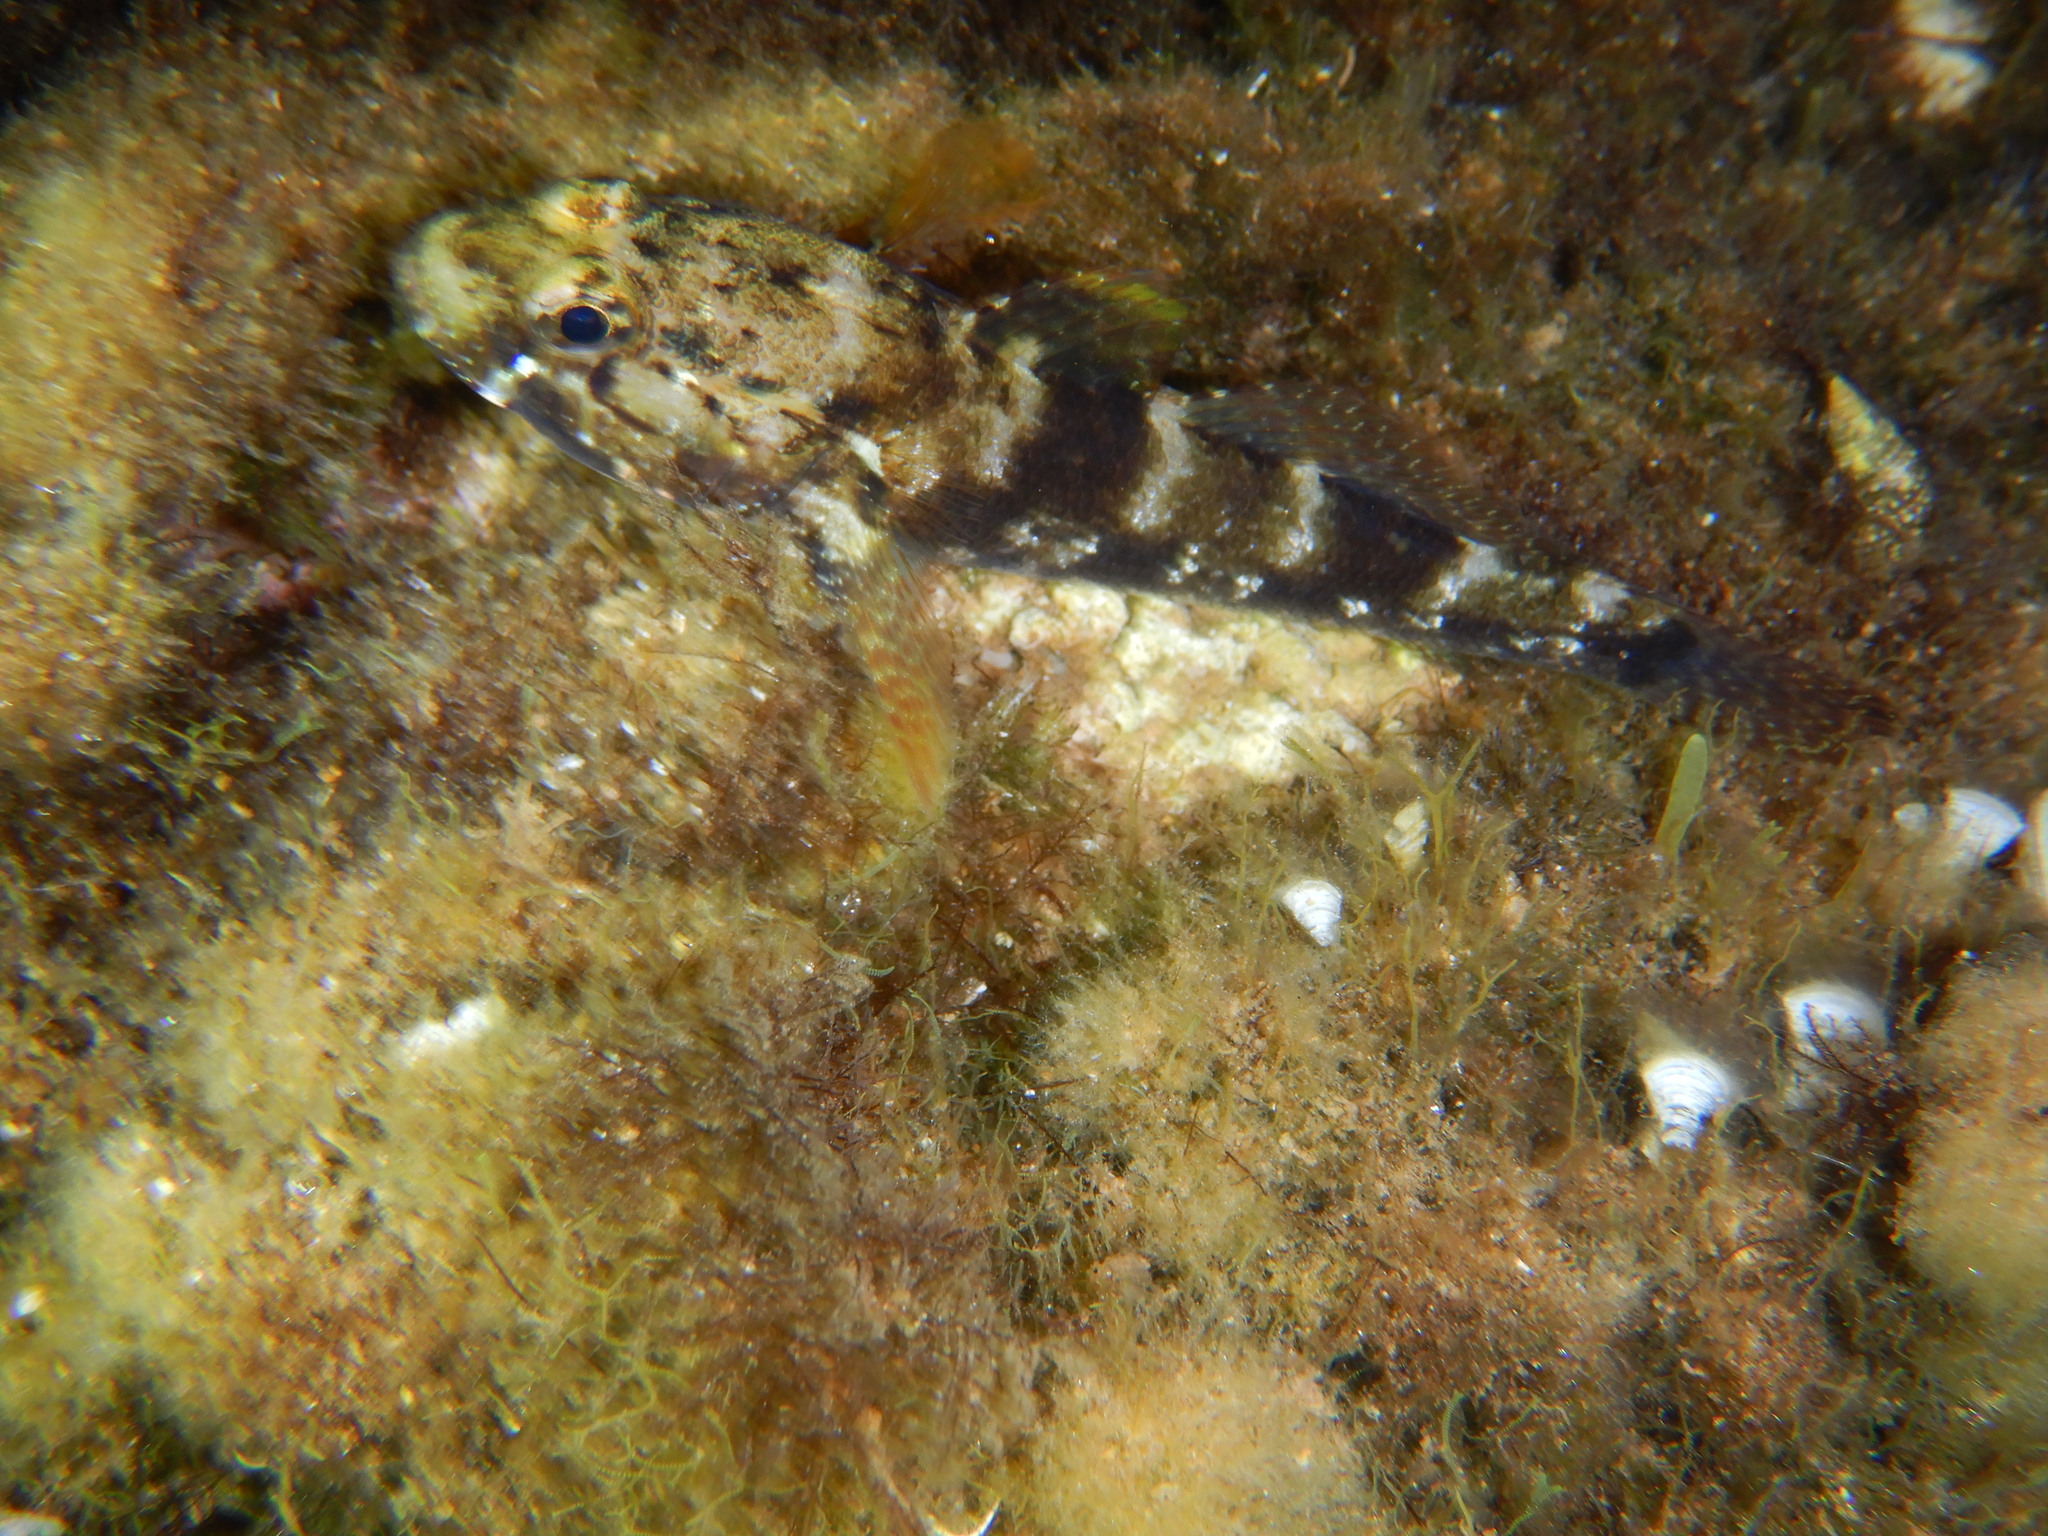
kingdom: Animalia
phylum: Chordata
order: Perciformes
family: Gobiidae
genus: Gobius
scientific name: Gobius paganellus
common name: Rock goby
